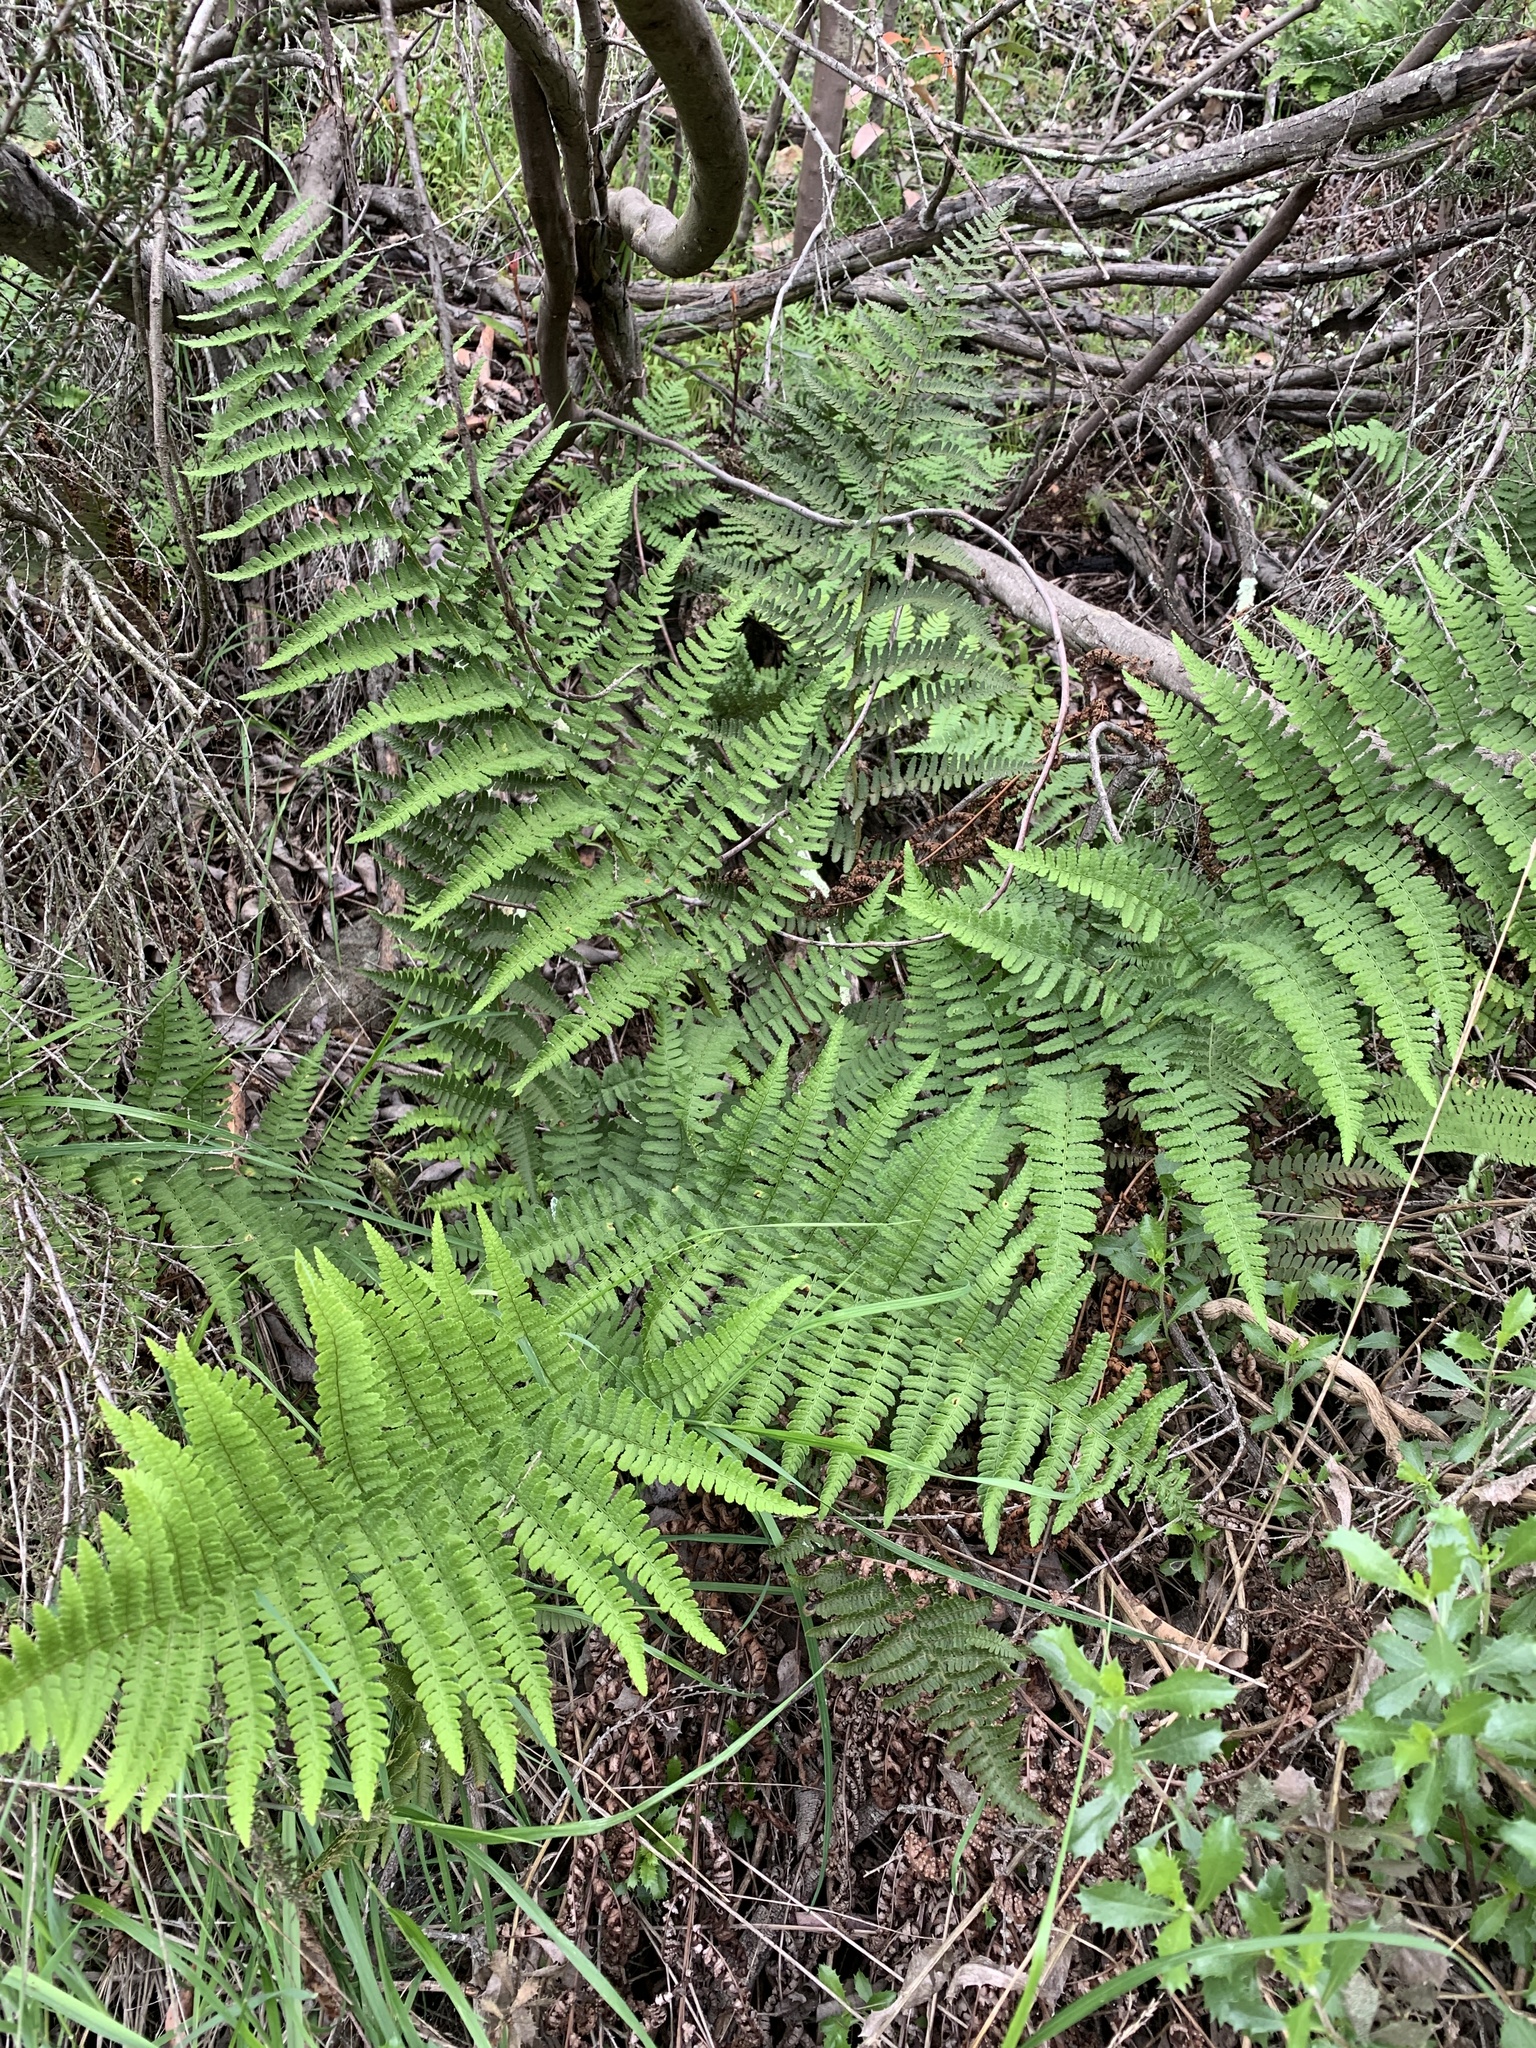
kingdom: Plantae
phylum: Tracheophyta
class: Polypodiopsida
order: Polypodiales
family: Dryopteridaceae
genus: Dryopteris
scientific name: Dryopteris arguta
